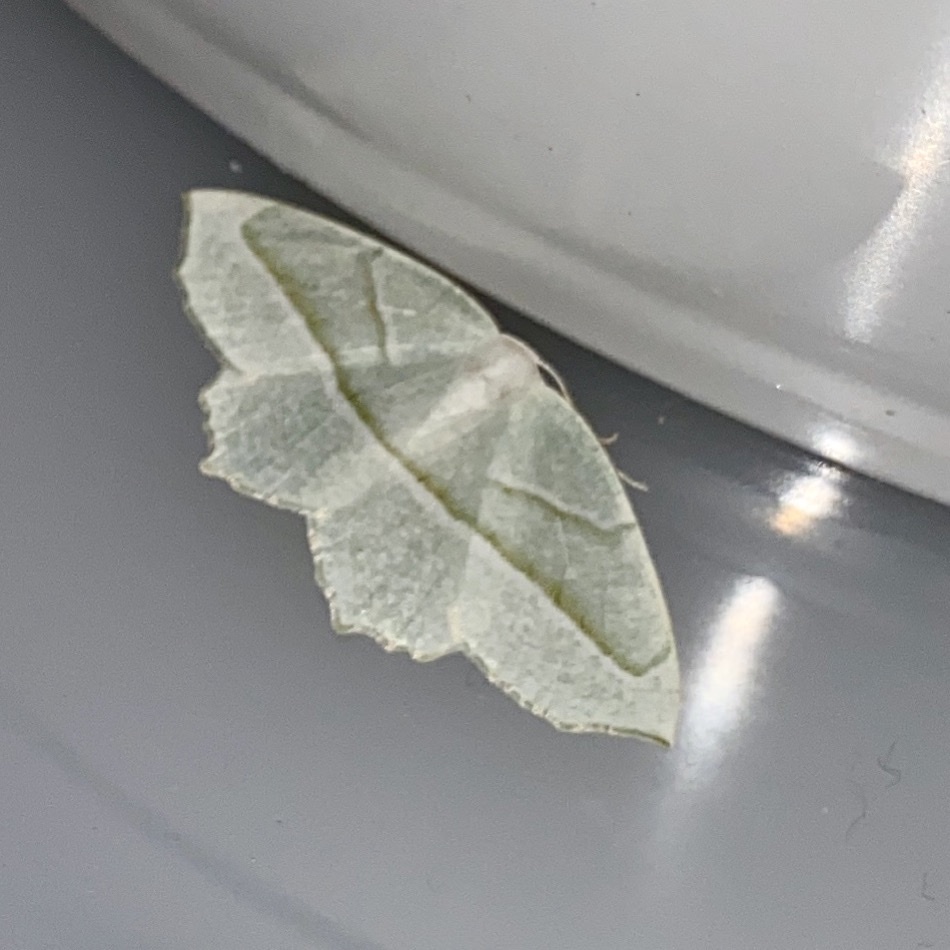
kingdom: Animalia
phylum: Arthropoda
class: Insecta
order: Lepidoptera
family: Geometridae
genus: Campaea
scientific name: Campaea perlata
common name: Fringed looper
